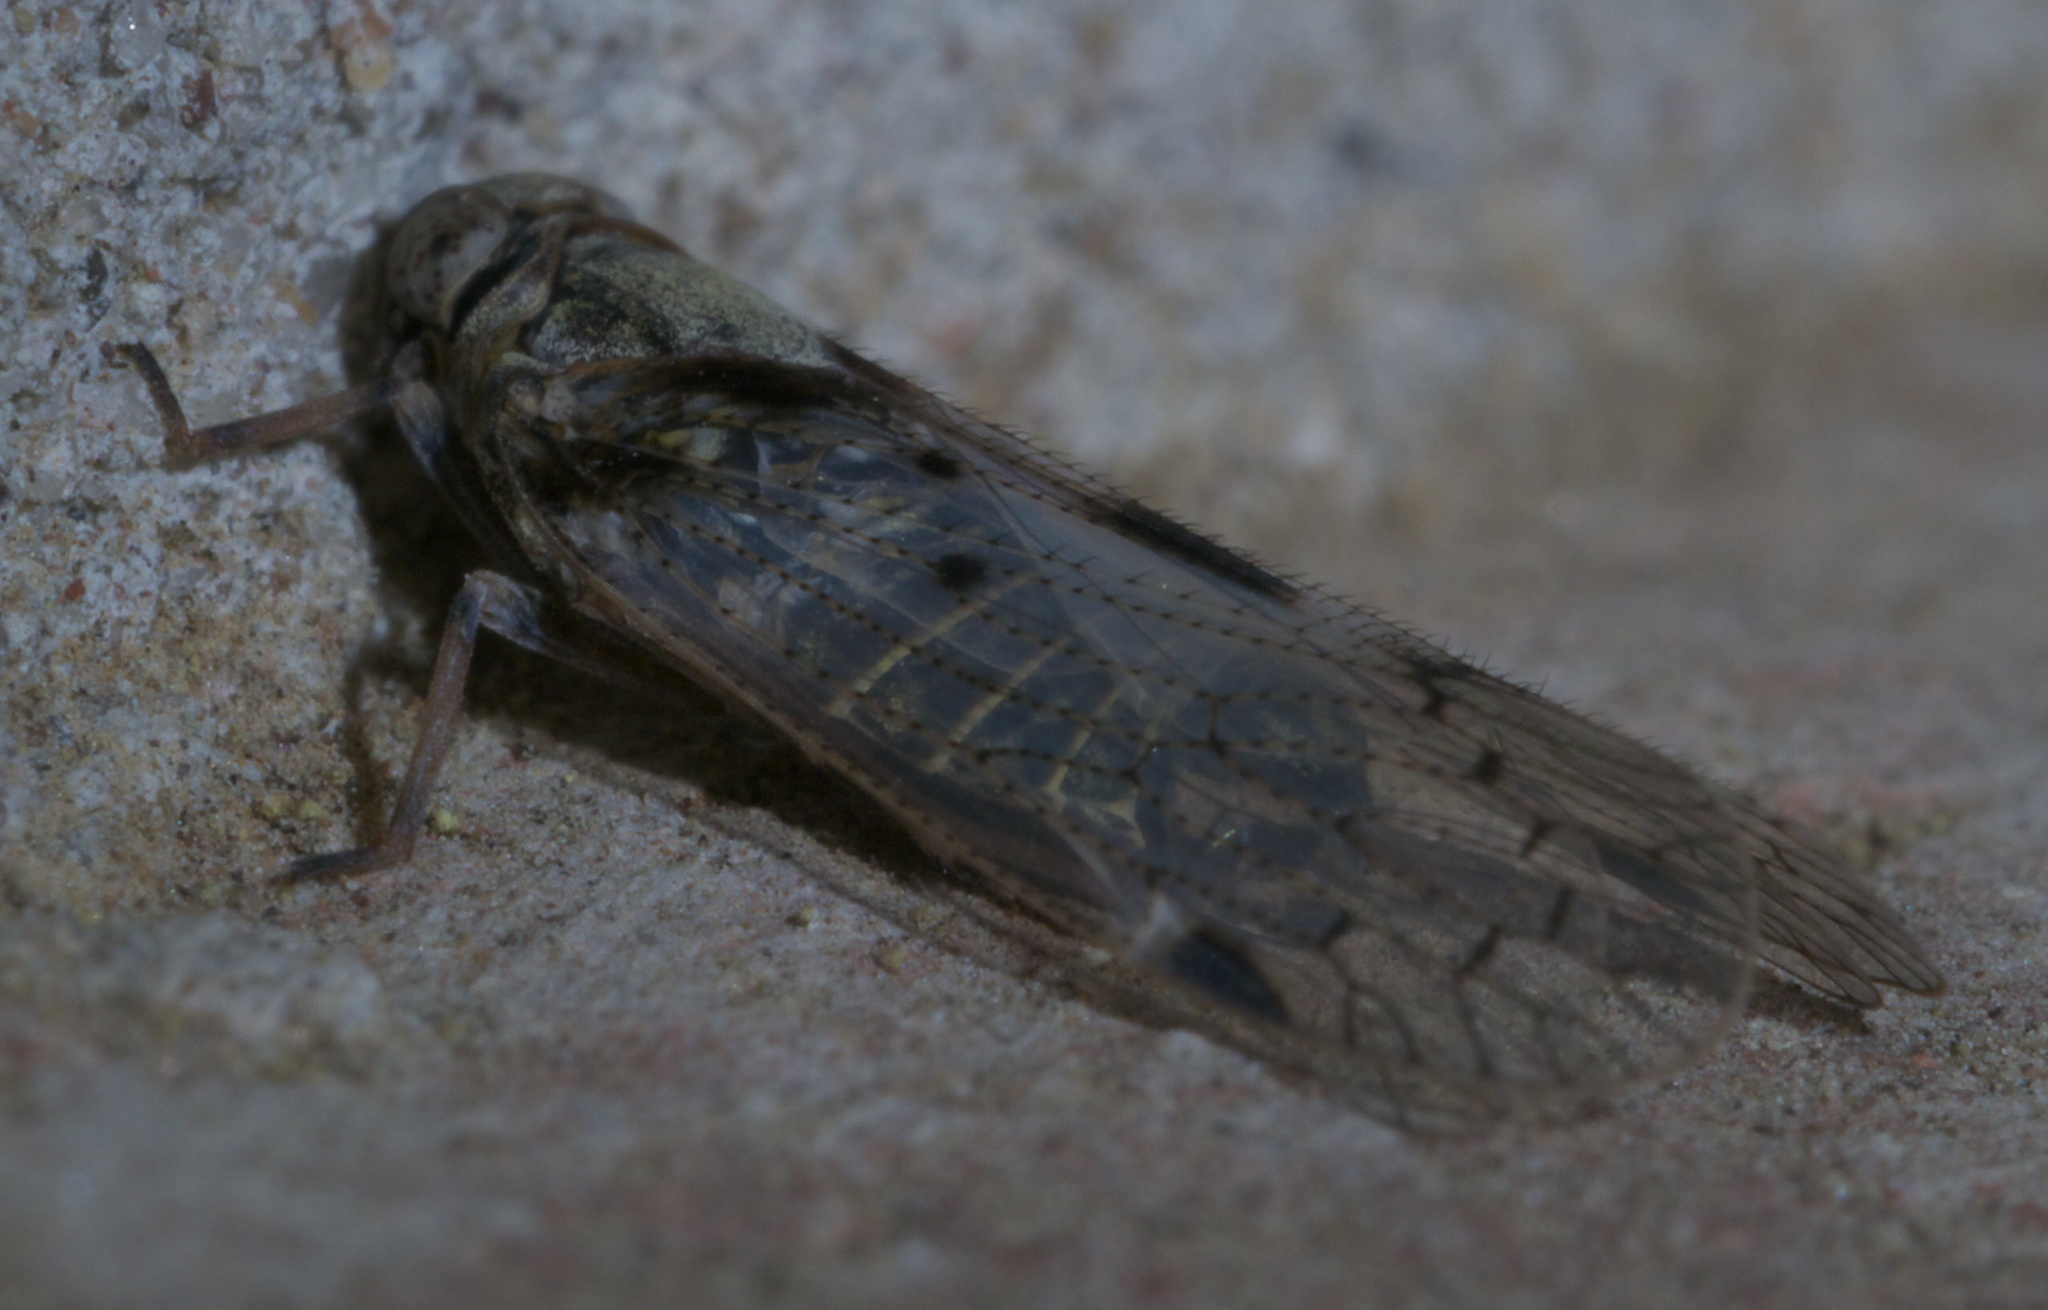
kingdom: Animalia
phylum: Arthropoda
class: Insecta
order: Hemiptera
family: Cixiidae
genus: Melanoliarus
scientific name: Melanoliarus aridus
